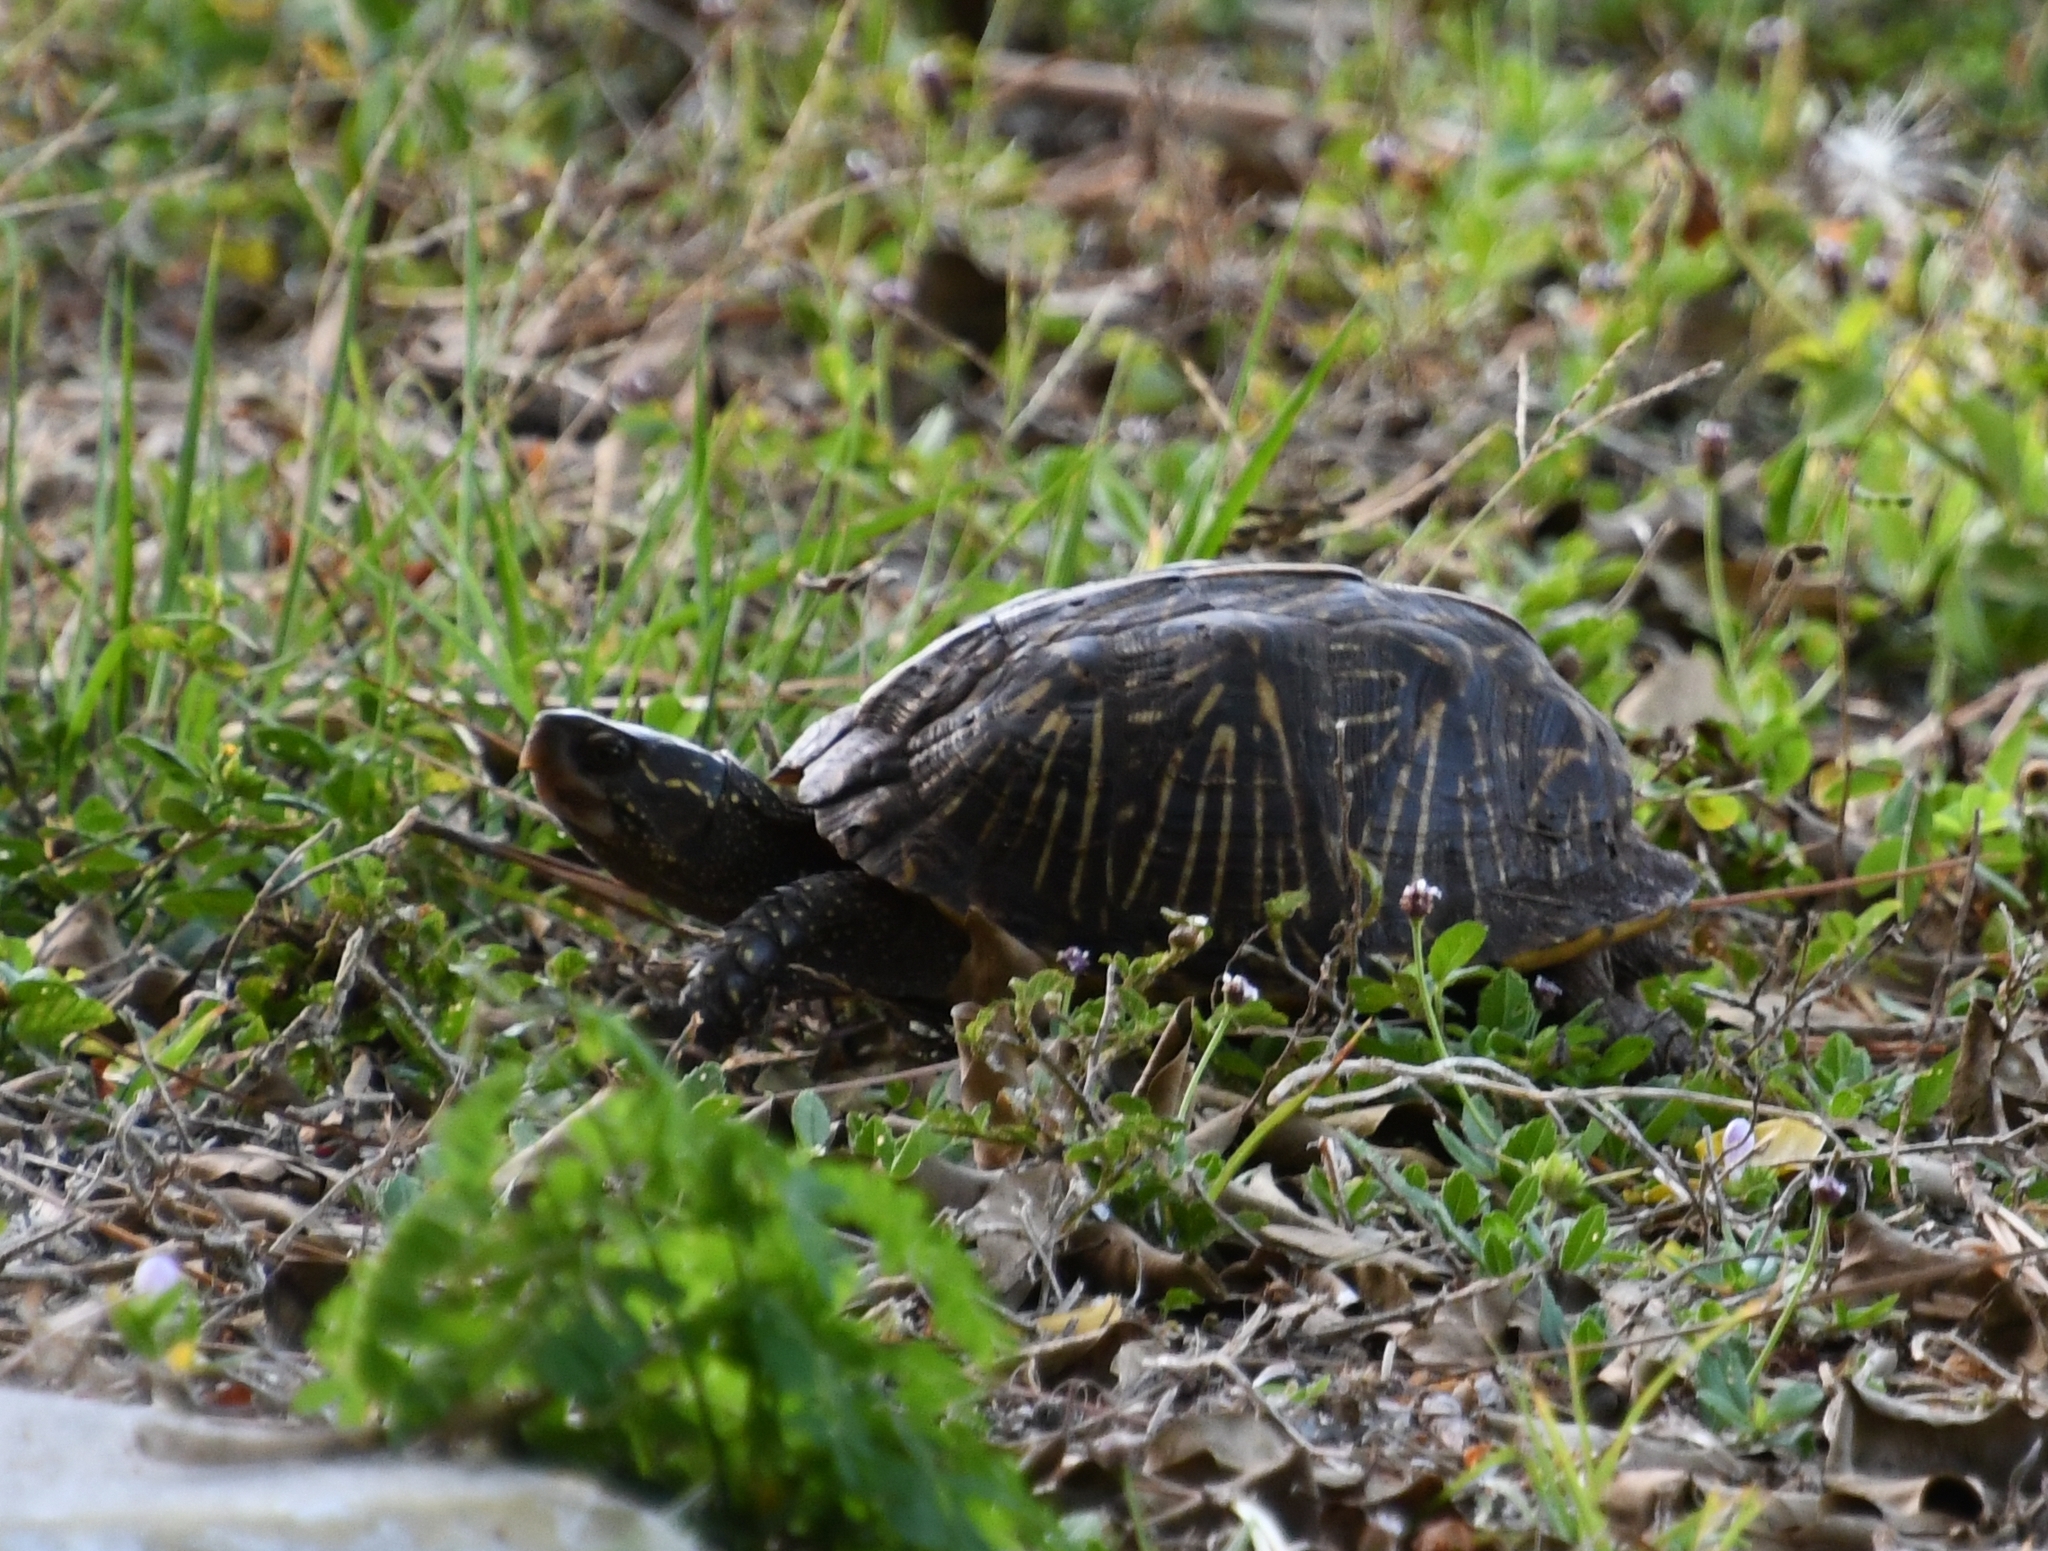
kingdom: Animalia
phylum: Chordata
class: Testudines
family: Emydidae
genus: Terrapene
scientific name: Terrapene carolina
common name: Common box turtle
